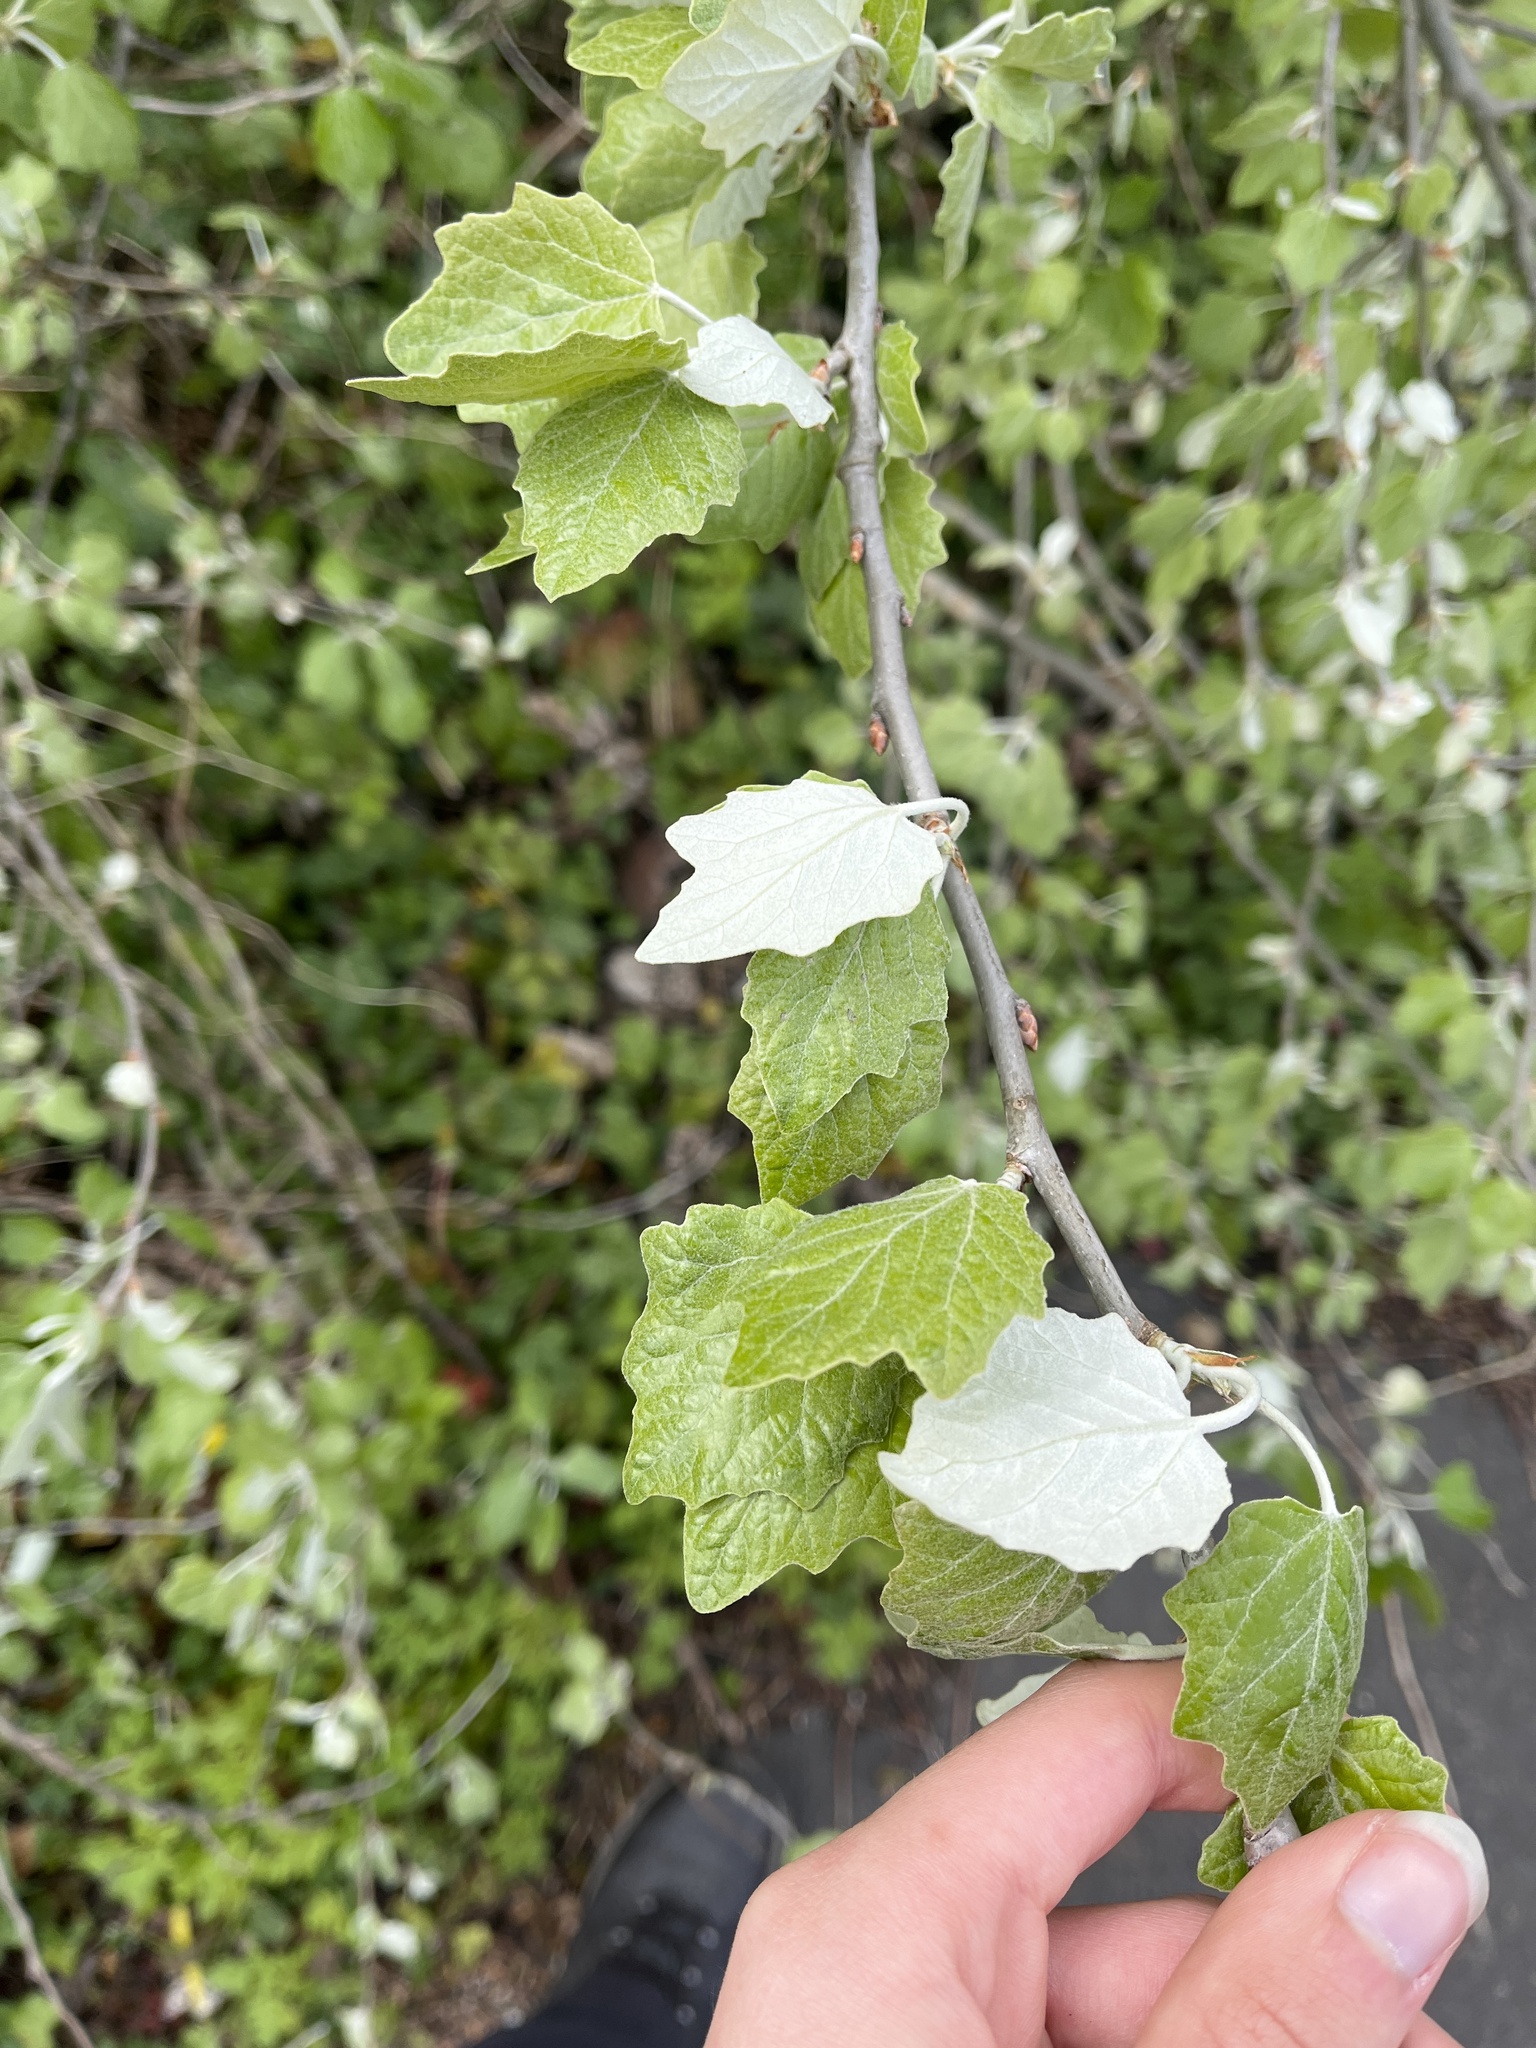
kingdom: Plantae
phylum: Tracheophyta
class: Magnoliopsida
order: Malpighiales
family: Salicaceae
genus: Populus
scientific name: Populus alba
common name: White poplar
